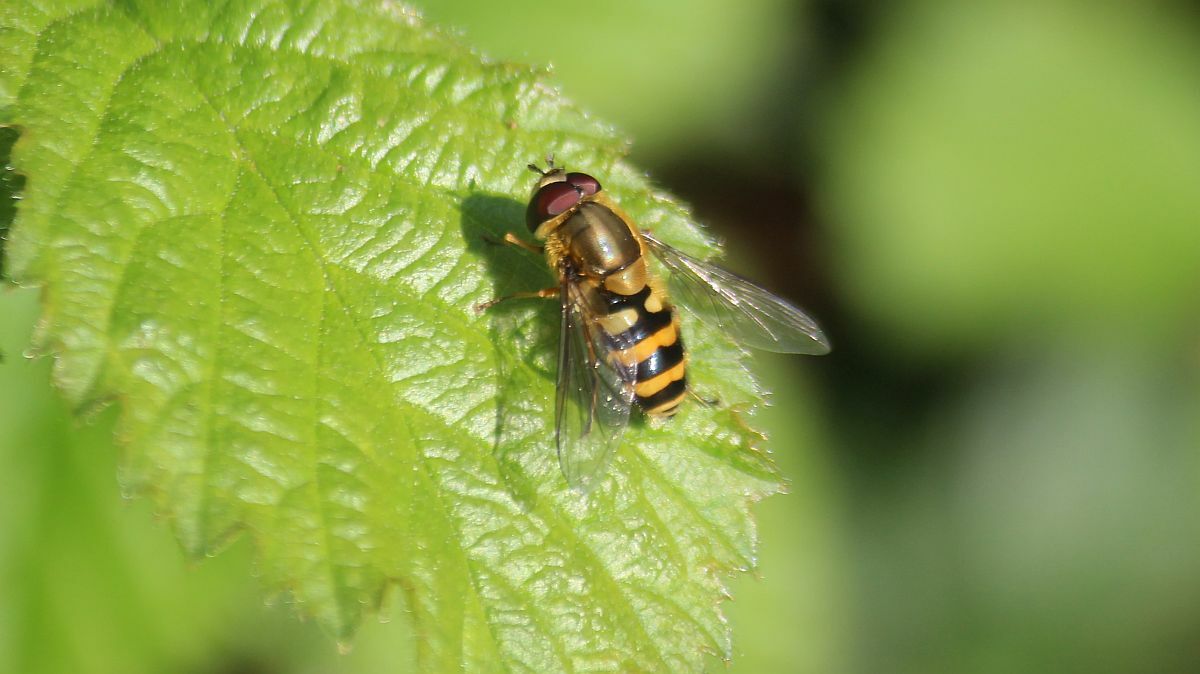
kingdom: Animalia
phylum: Arthropoda
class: Insecta
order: Diptera
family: Syrphidae
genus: Syrphus
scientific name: Syrphus
